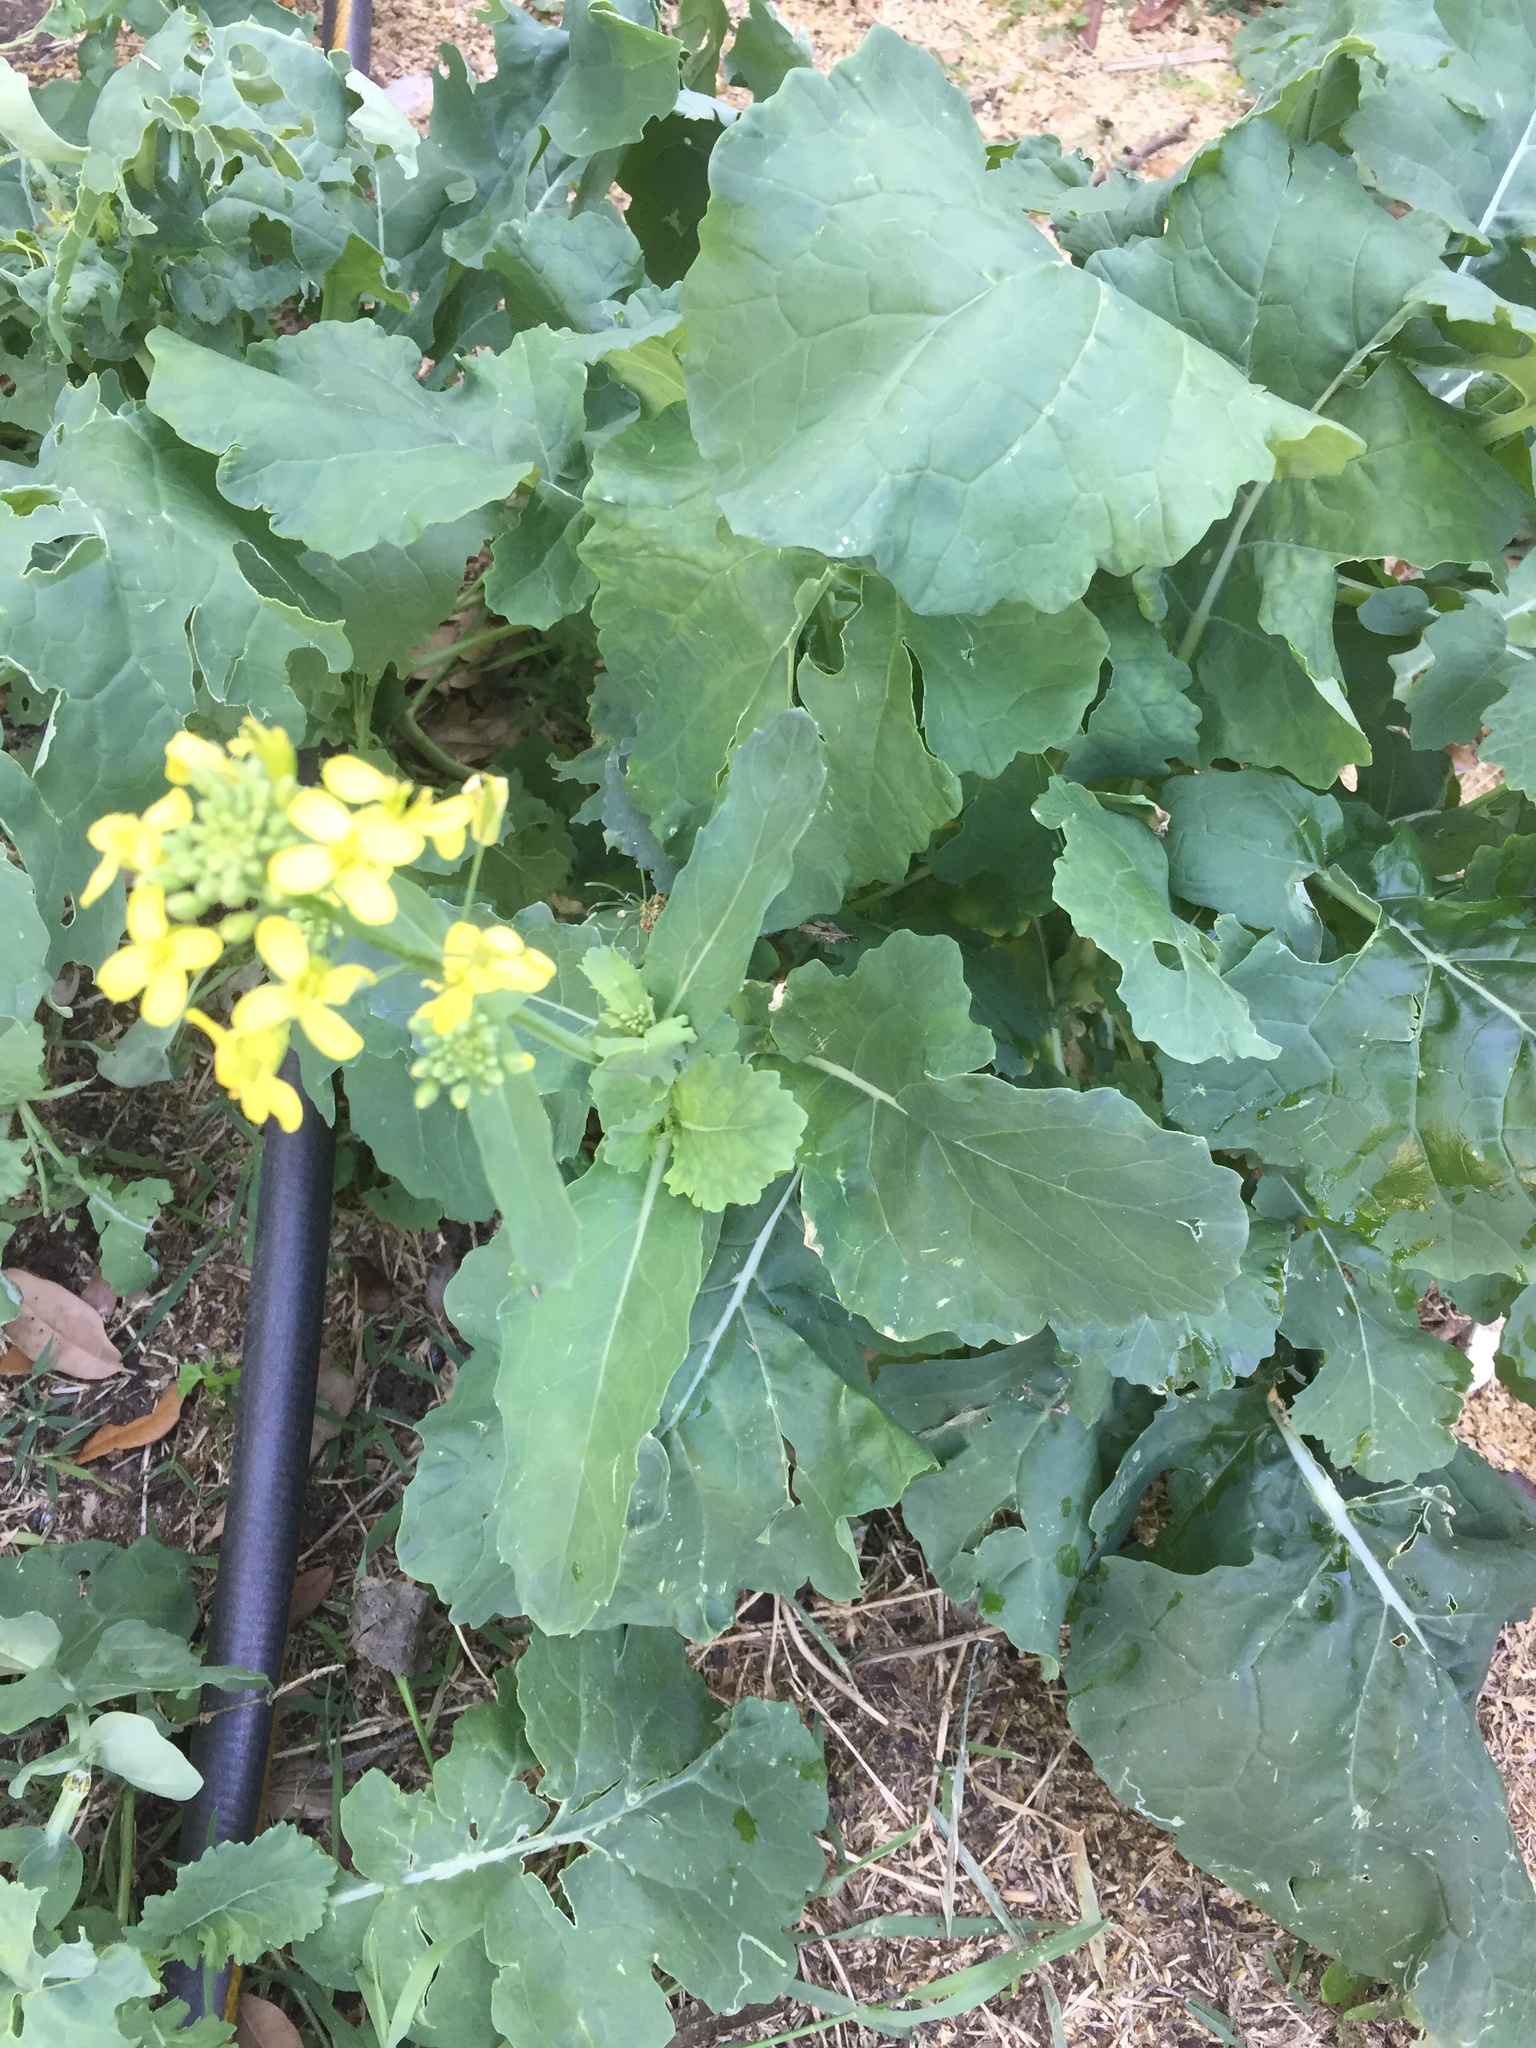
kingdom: Plantae
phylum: Tracheophyta
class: Magnoliopsida
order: Brassicales
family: Brassicaceae
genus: Rapistrum
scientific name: Rapistrum rugosum
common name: Annual bastardcabbage
